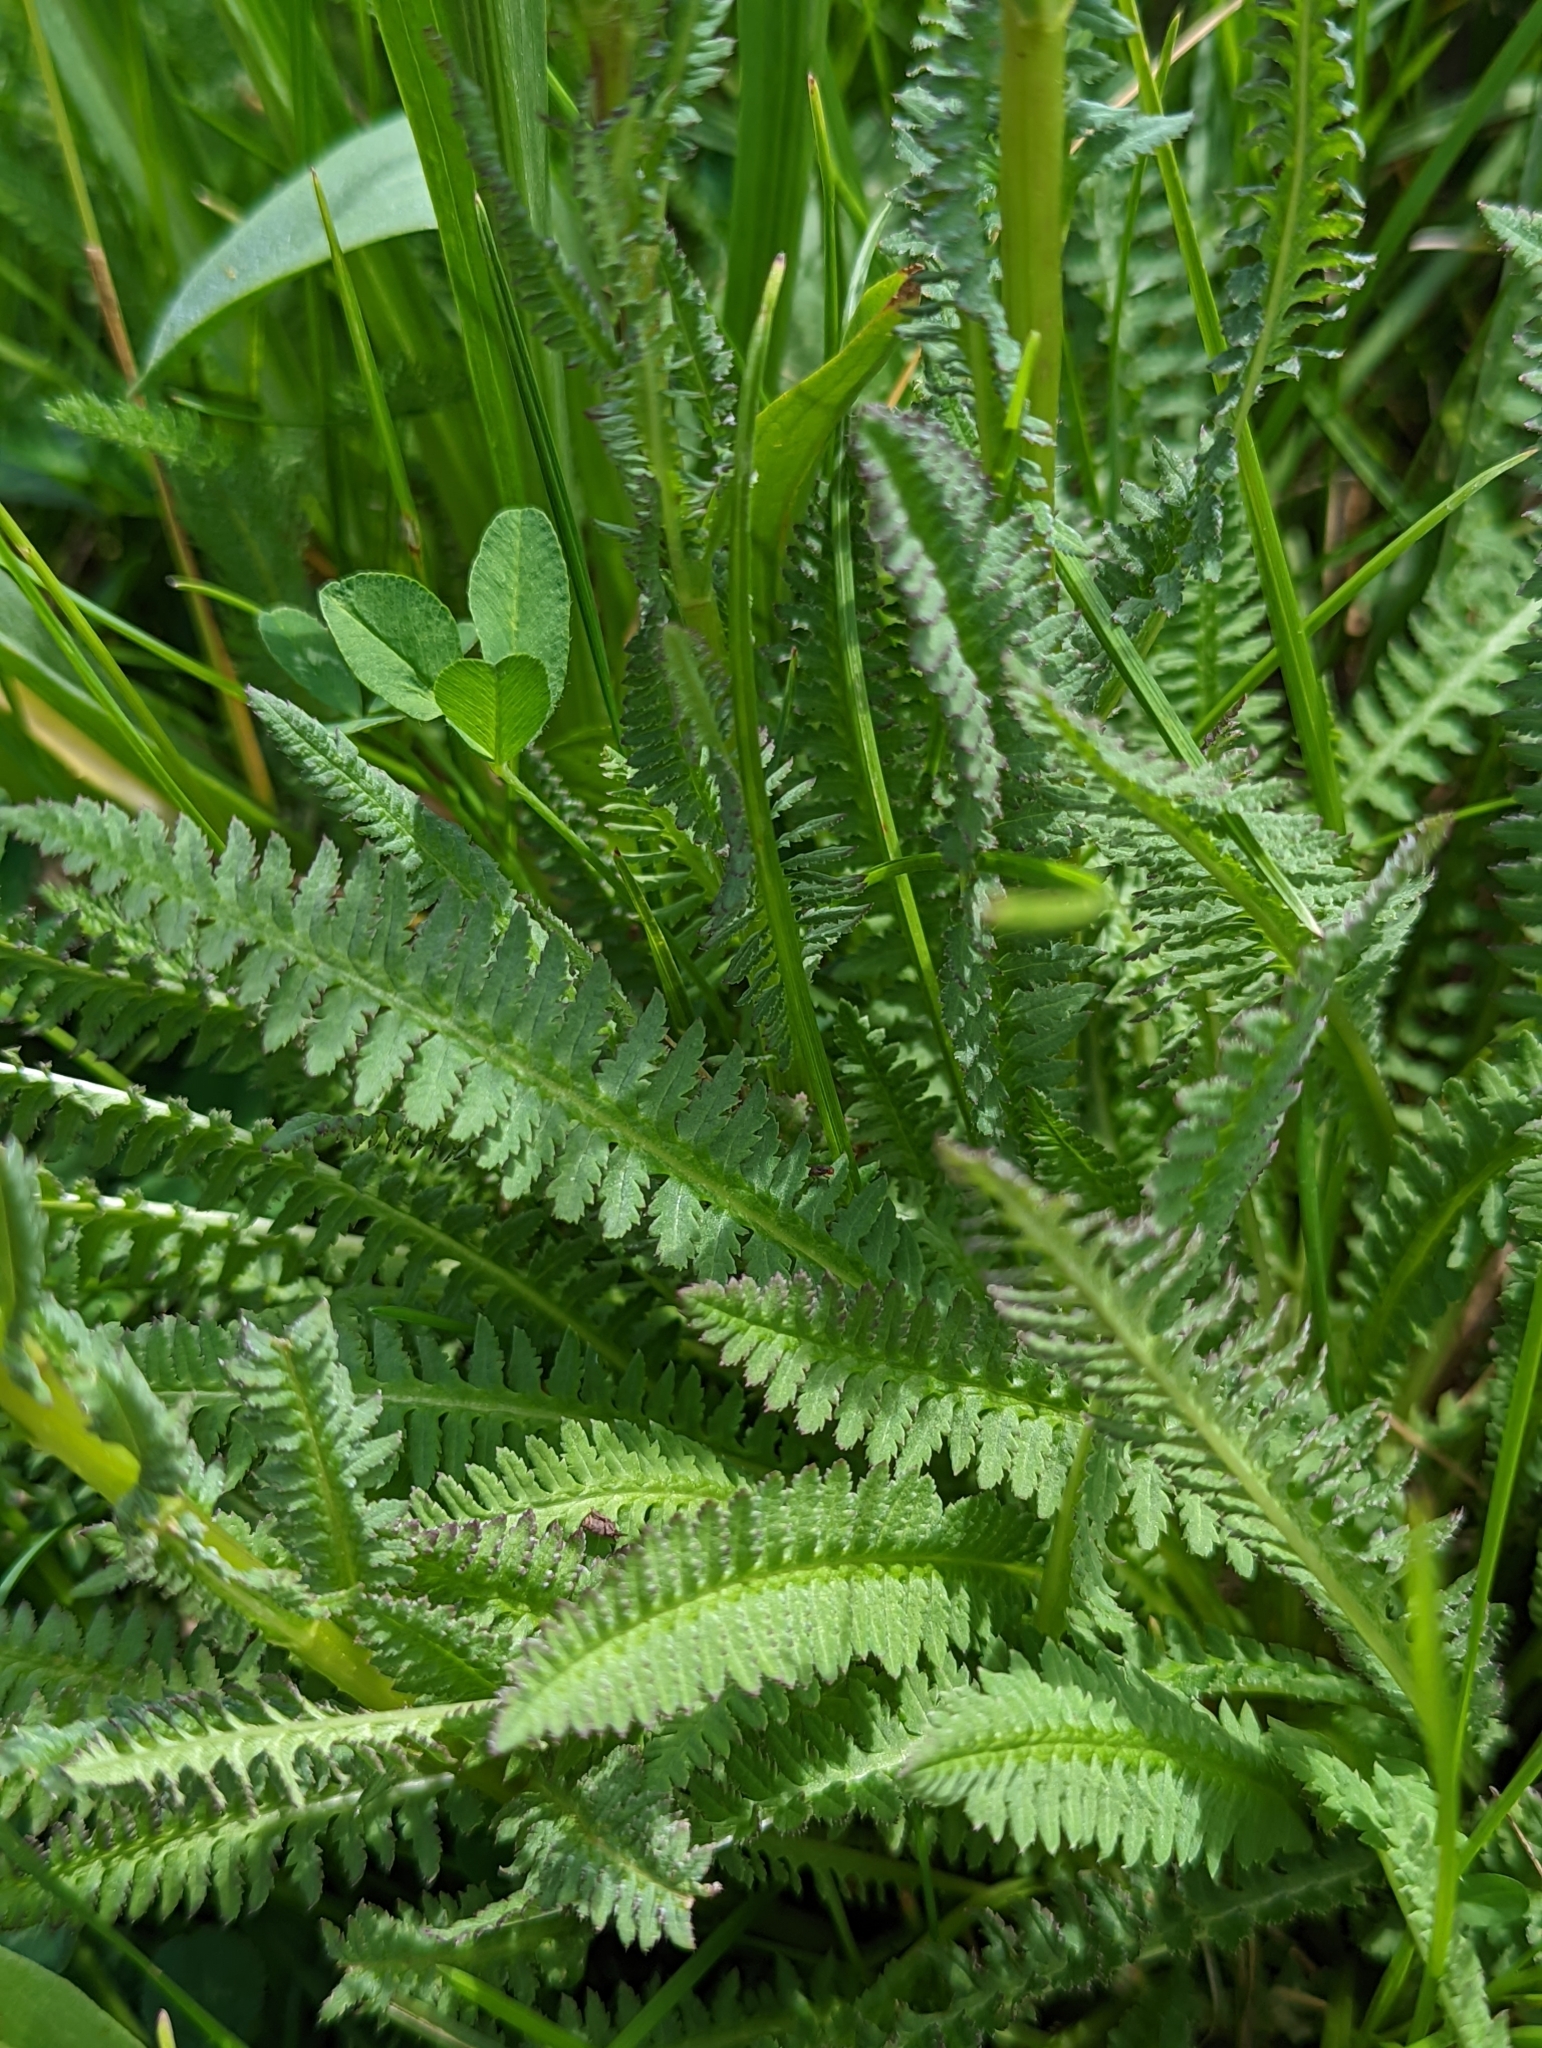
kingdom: Plantae
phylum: Tracheophyta
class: Magnoliopsida
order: Lamiales
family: Orobanchaceae
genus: Pedicularis
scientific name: Pedicularis parryi
